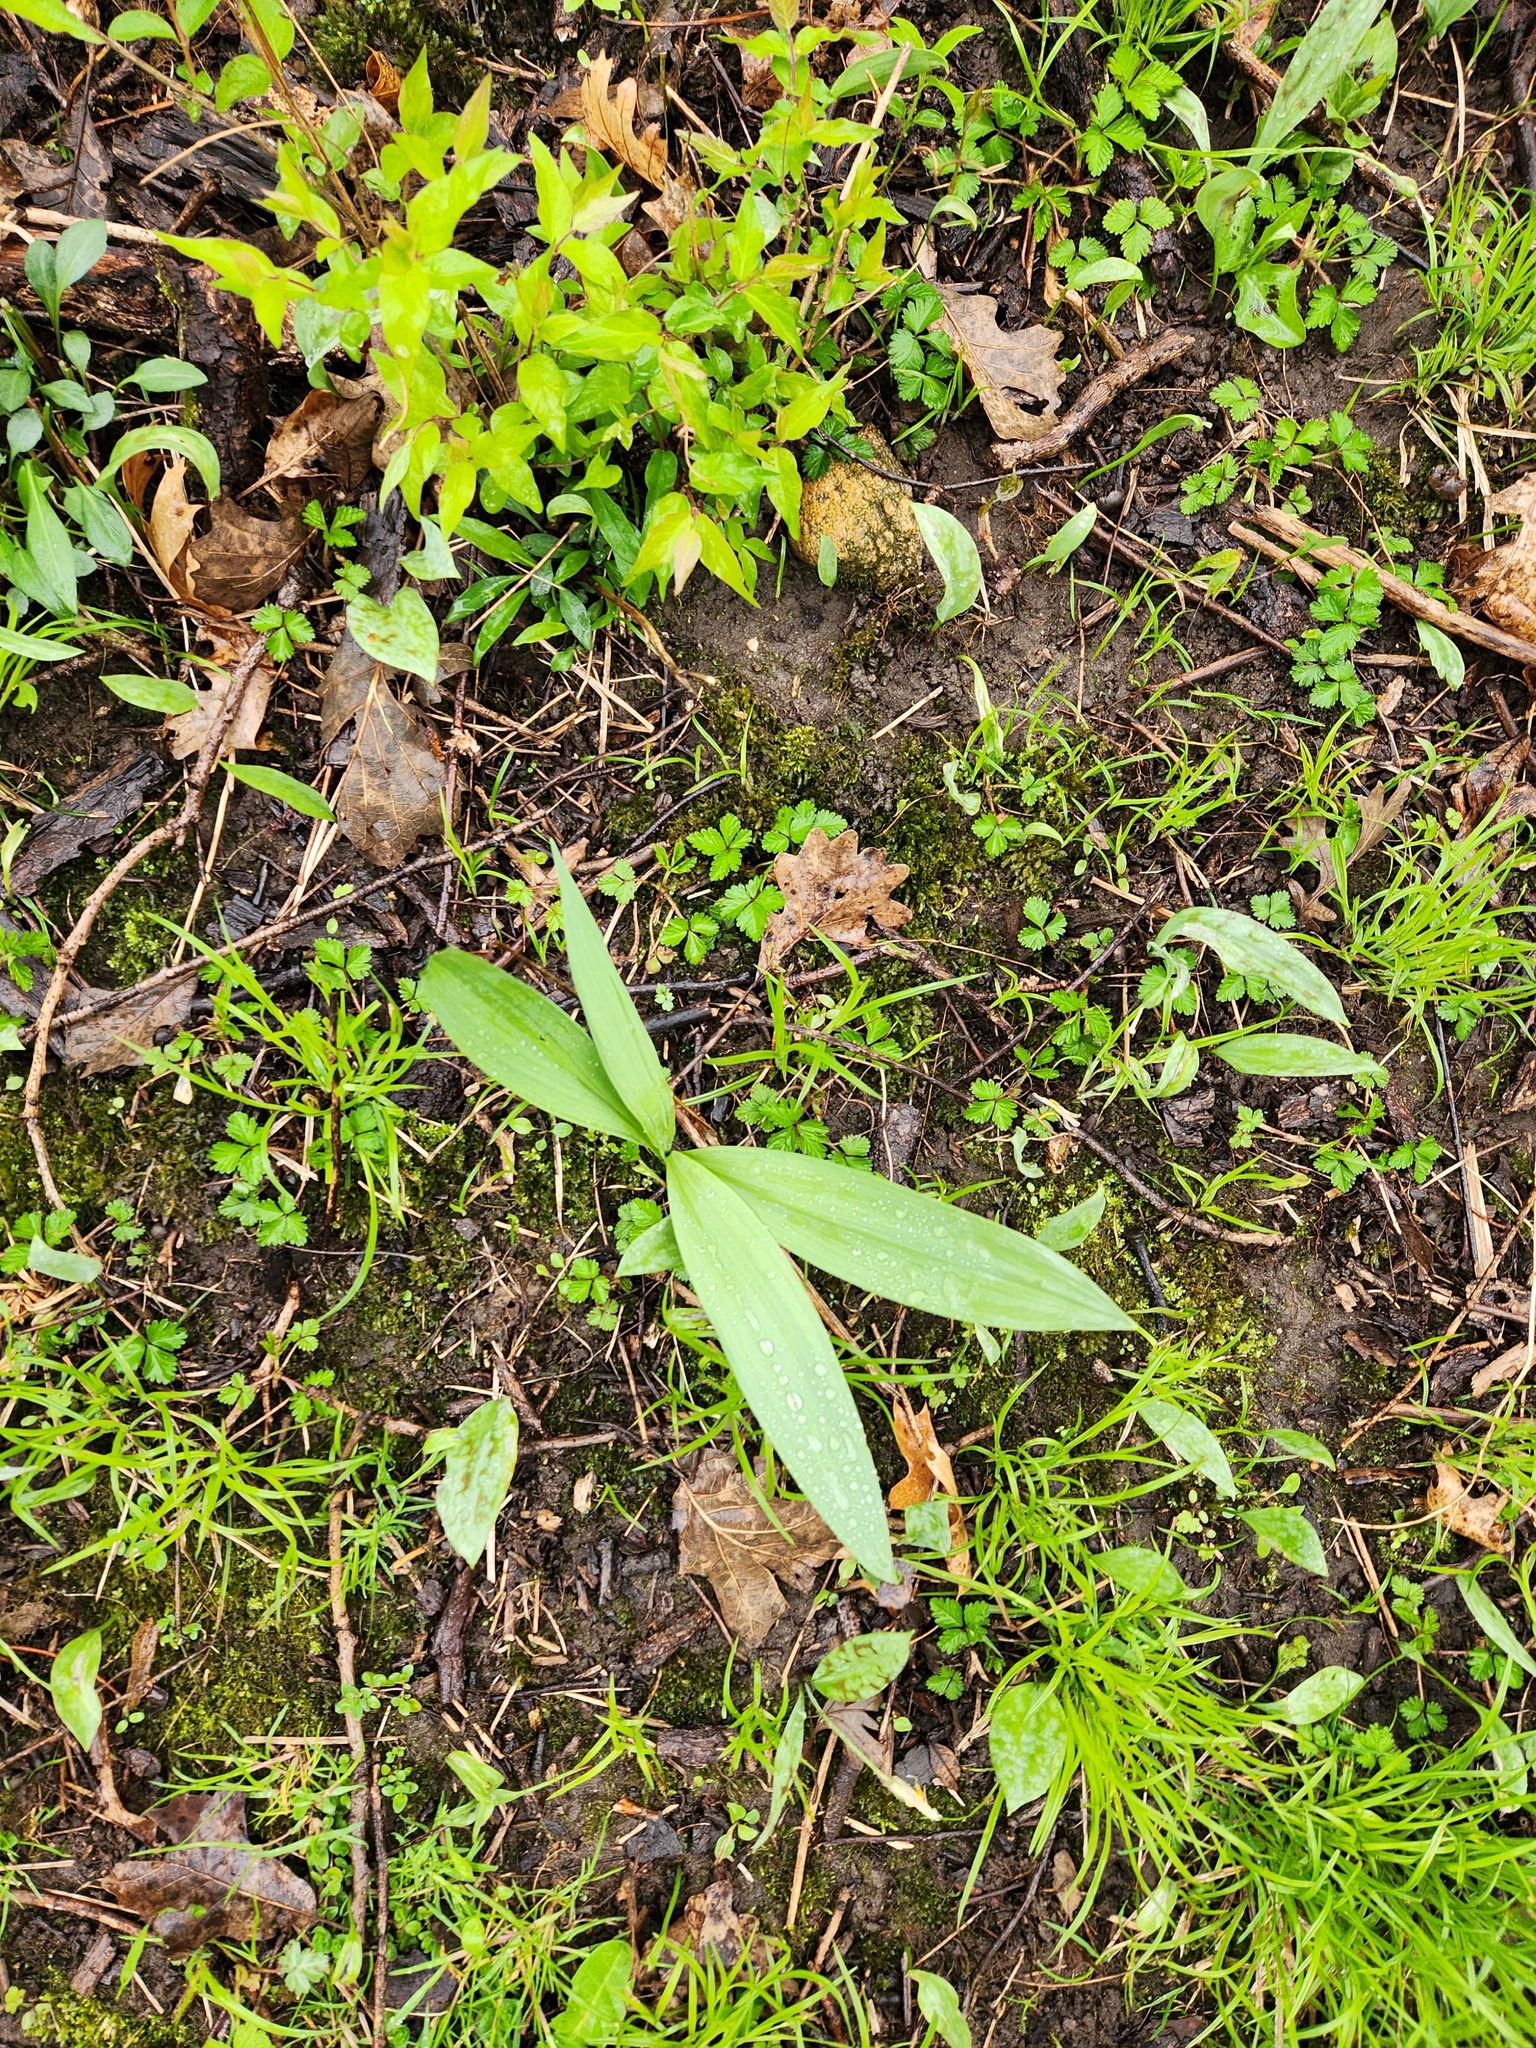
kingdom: Plantae
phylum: Tracheophyta
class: Liliopsida
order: Asparagales
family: Amaryllidaceae
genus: Allium
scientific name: Allium tricoccum
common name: Ramp
